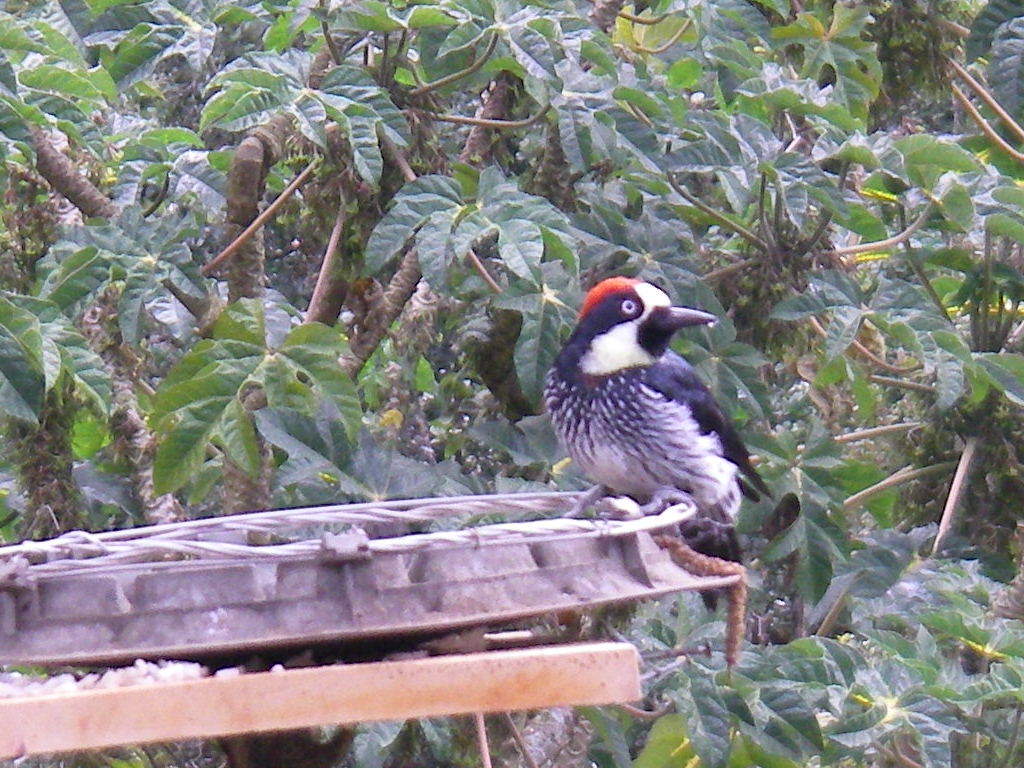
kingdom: Animalia
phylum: Chordata
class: Aves
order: Piciformes
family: Picidae
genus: Melanerpes
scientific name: Melanerpes formicivorus
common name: Acorn woodpecker
